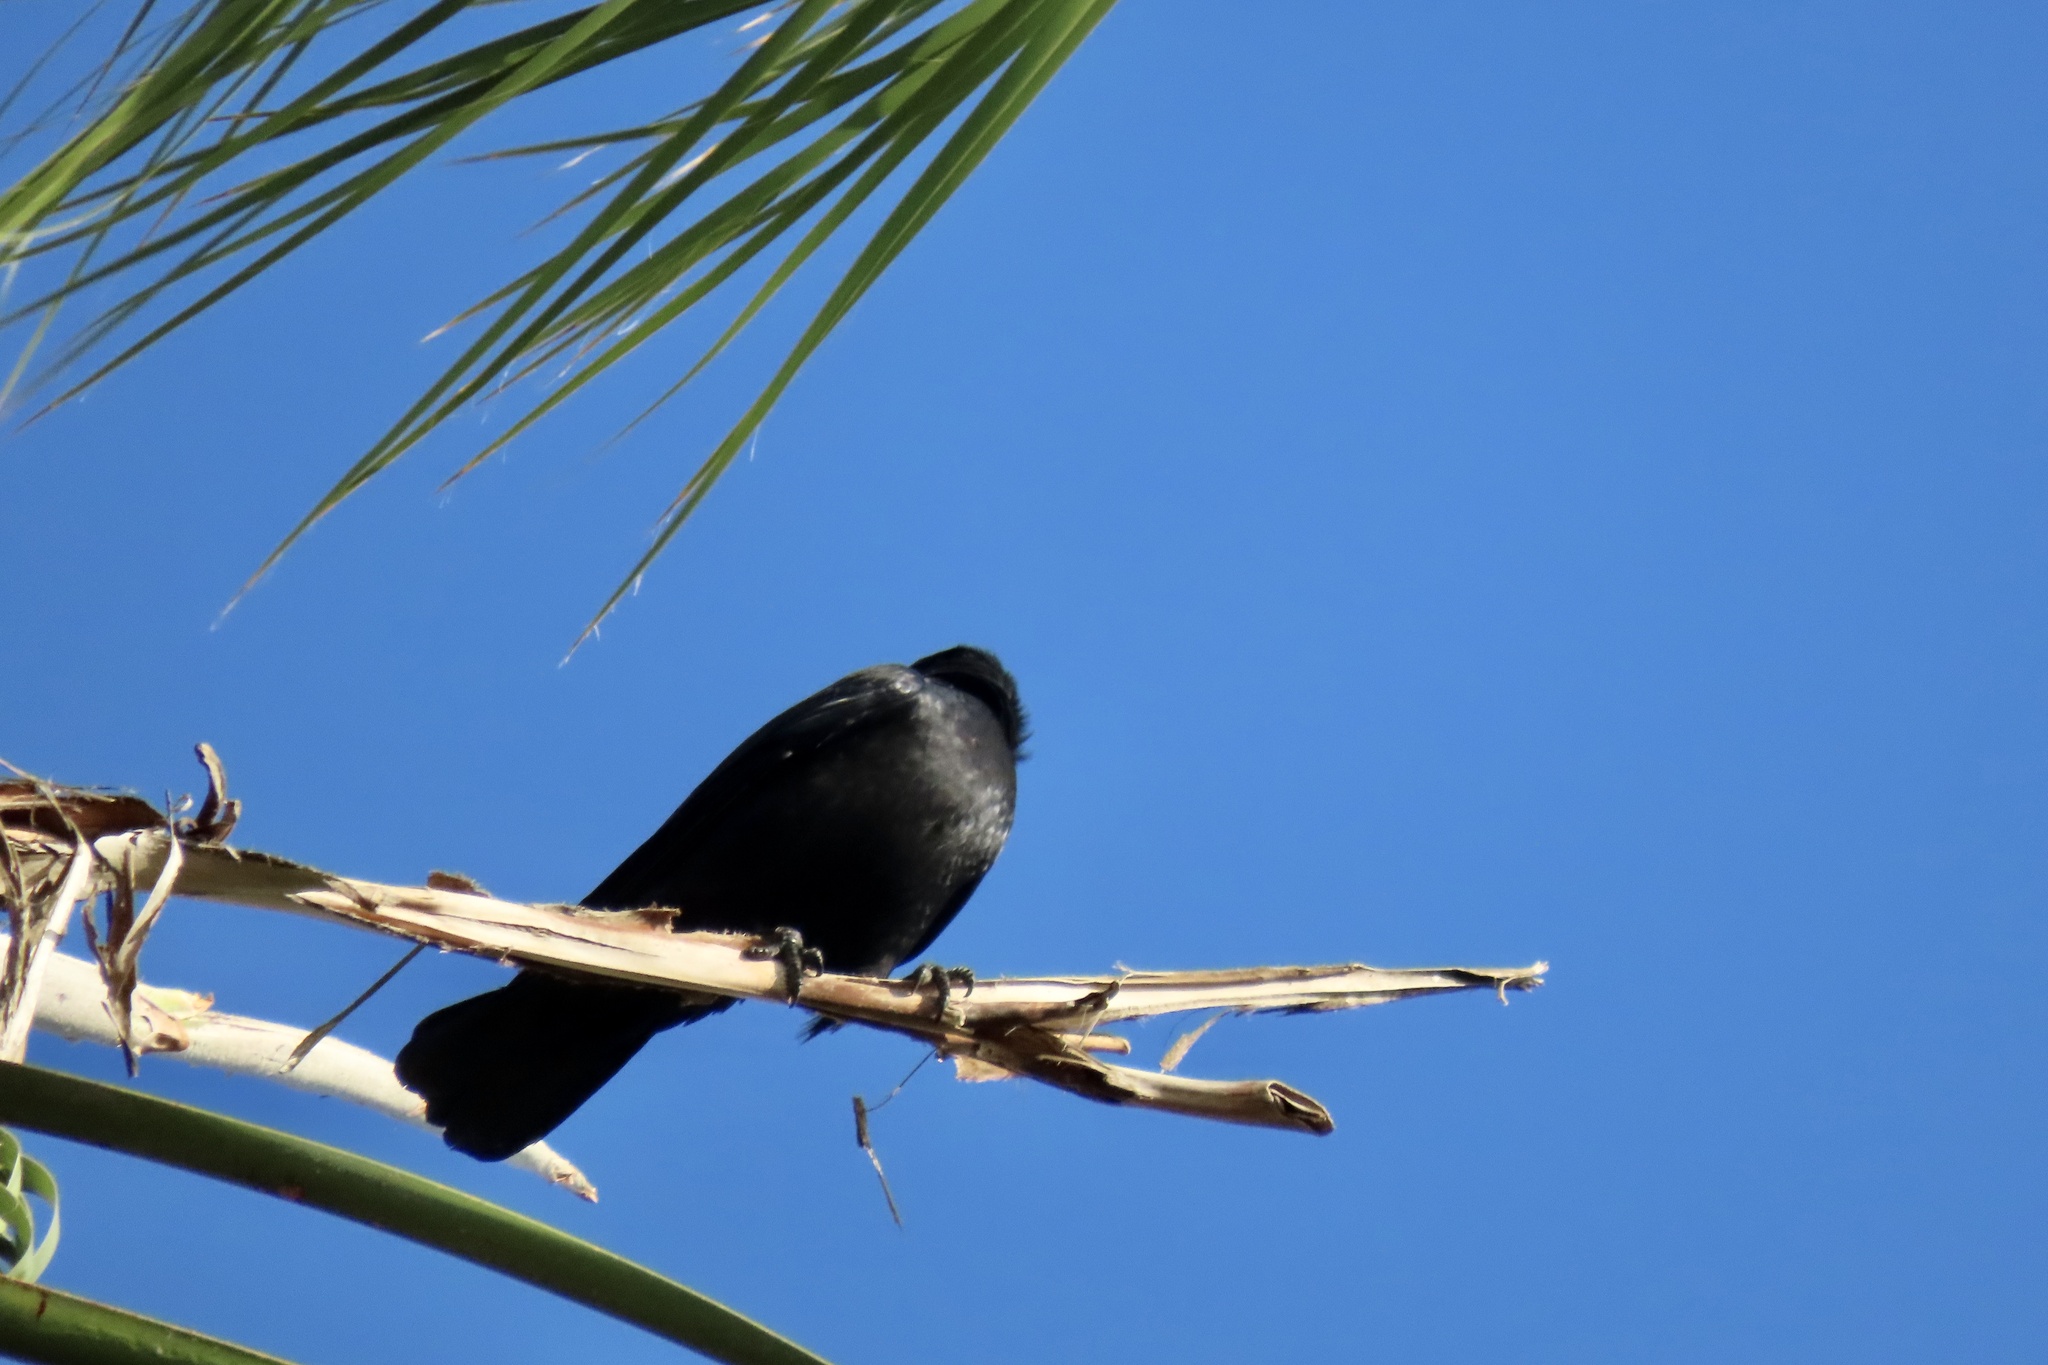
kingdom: Animalia
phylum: Chordata
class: Aves
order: Passeriformes
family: Corvidae
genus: Corvus
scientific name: Corvus brachyrhynchos
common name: American crow
